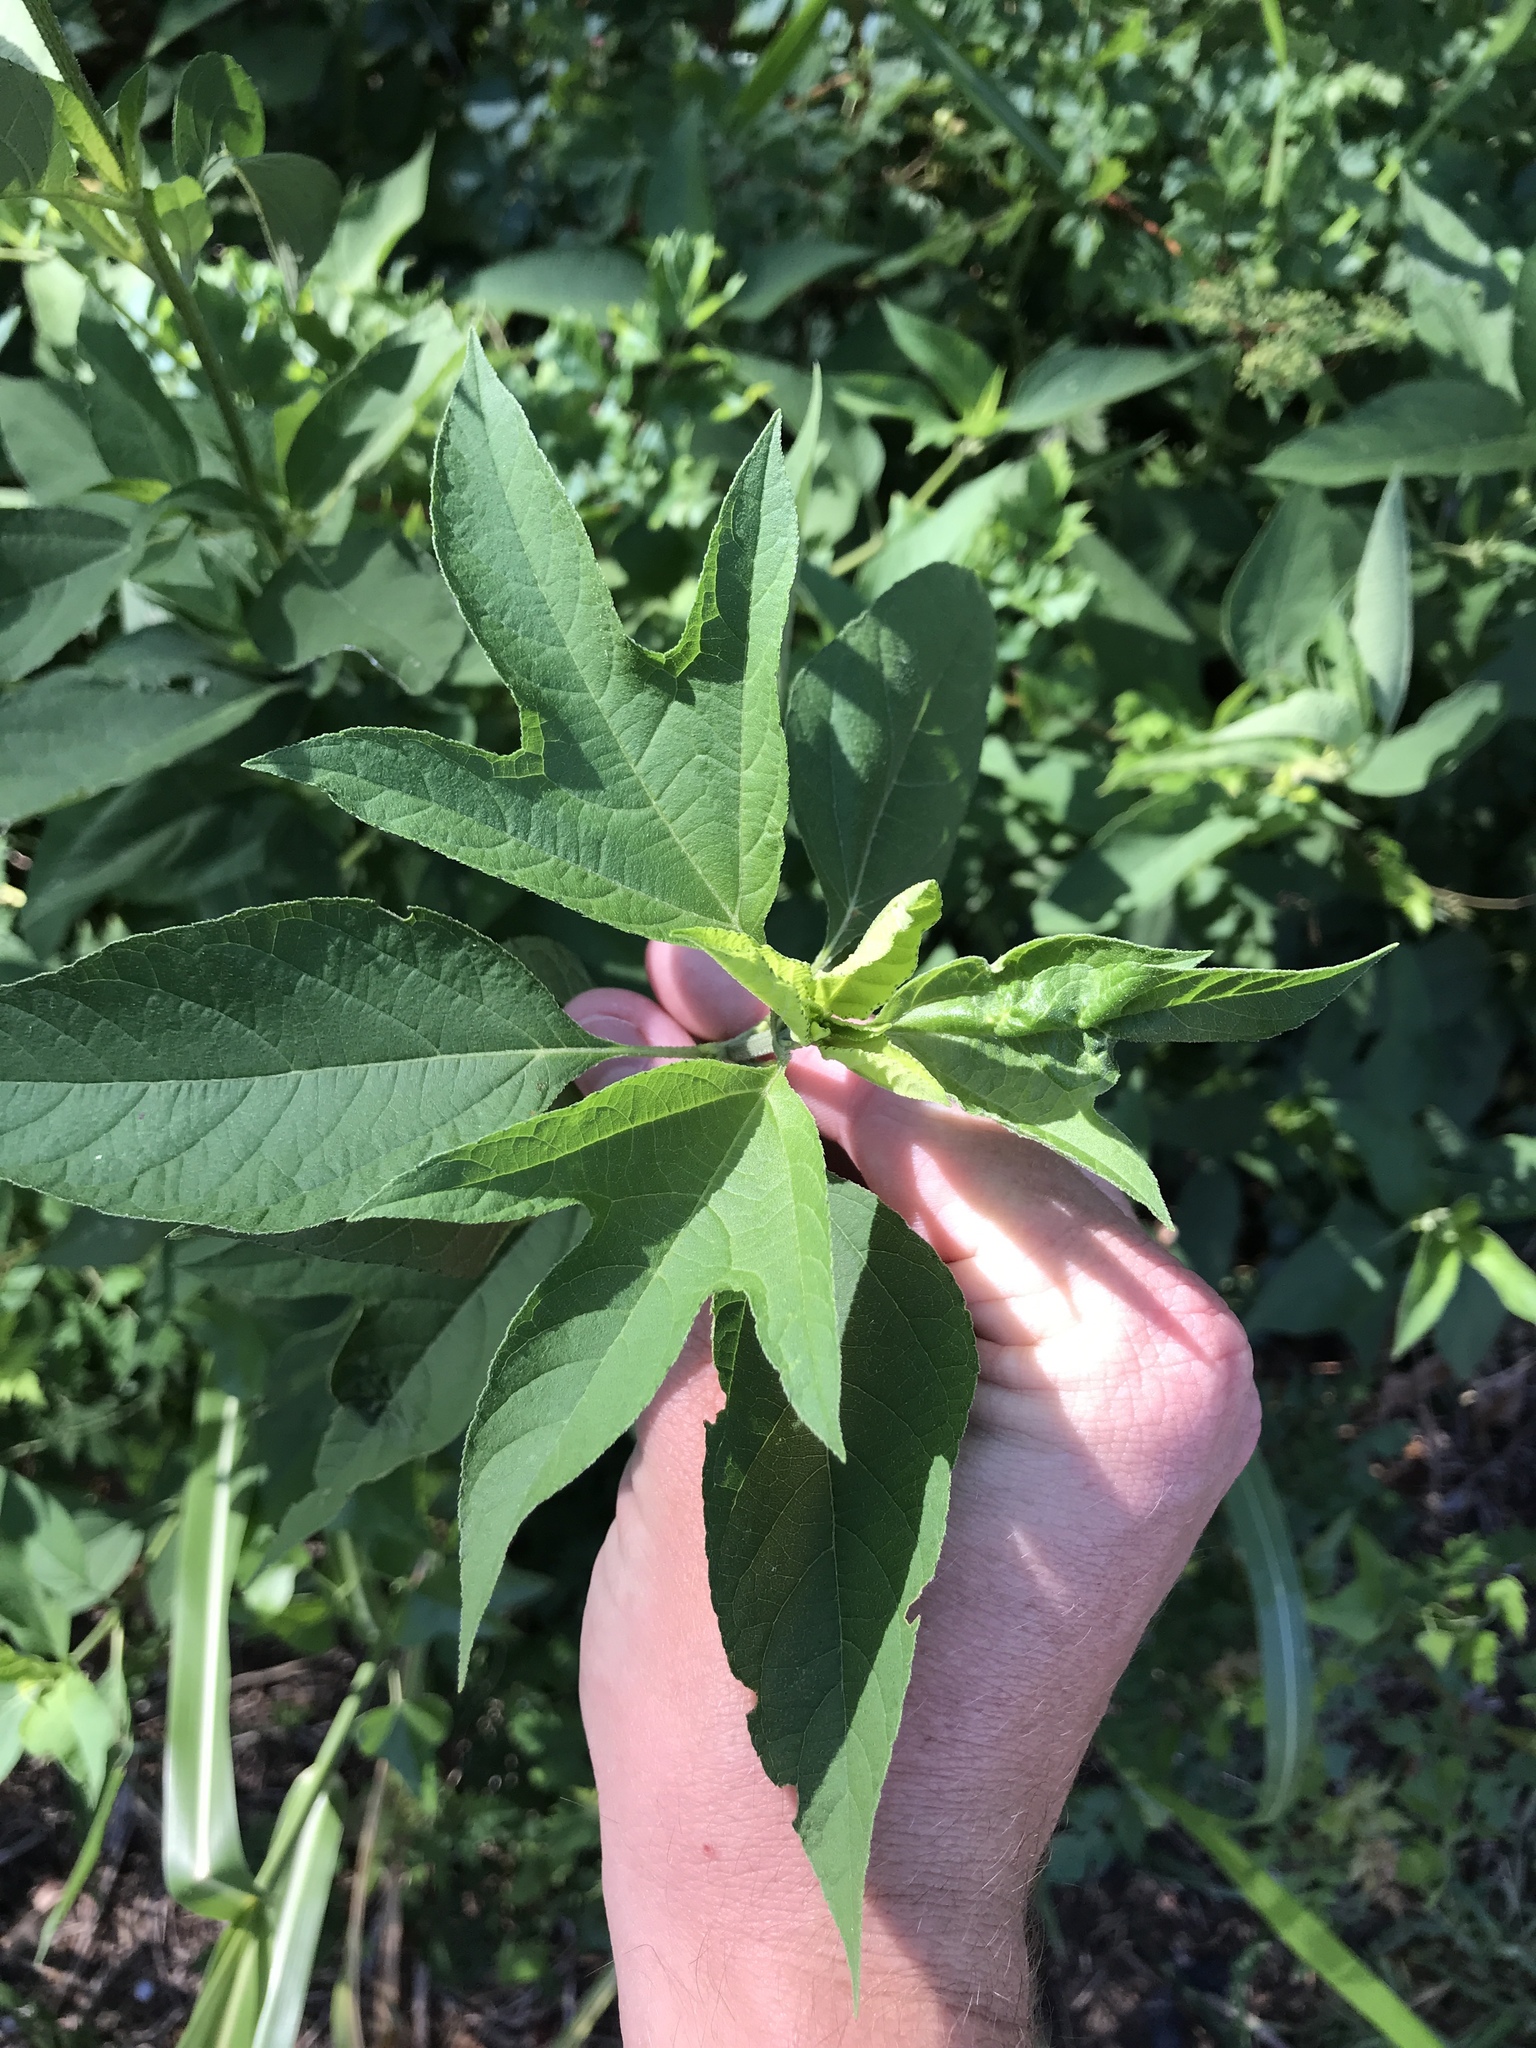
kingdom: Plantae
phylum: Tracheophyta
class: Magnoliopsida
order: Asterales
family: Asteraceae
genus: Ambrosia
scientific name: Ambrosia trifida
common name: Giant ragweed
